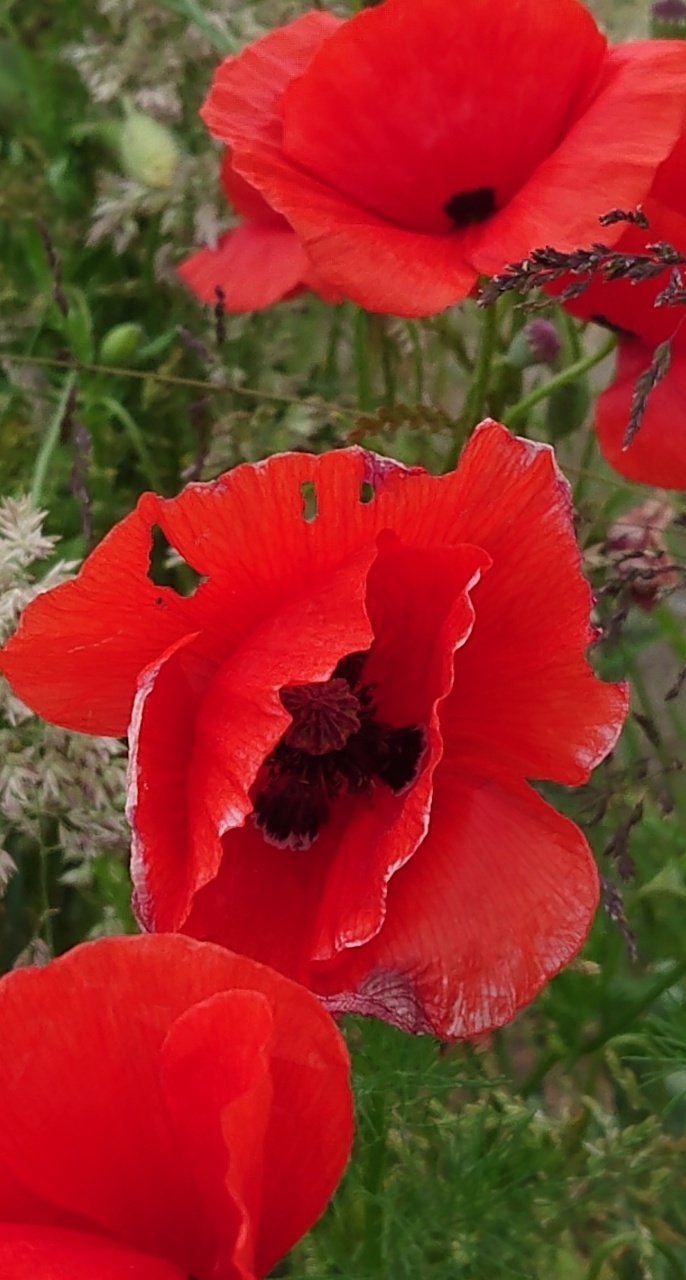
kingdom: Plantae
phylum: Tracheophyta
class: Magnoliopsida
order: Ranunculales
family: Papaveraceae
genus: Papaver
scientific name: Papaver rhoeas
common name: Corn poppy
